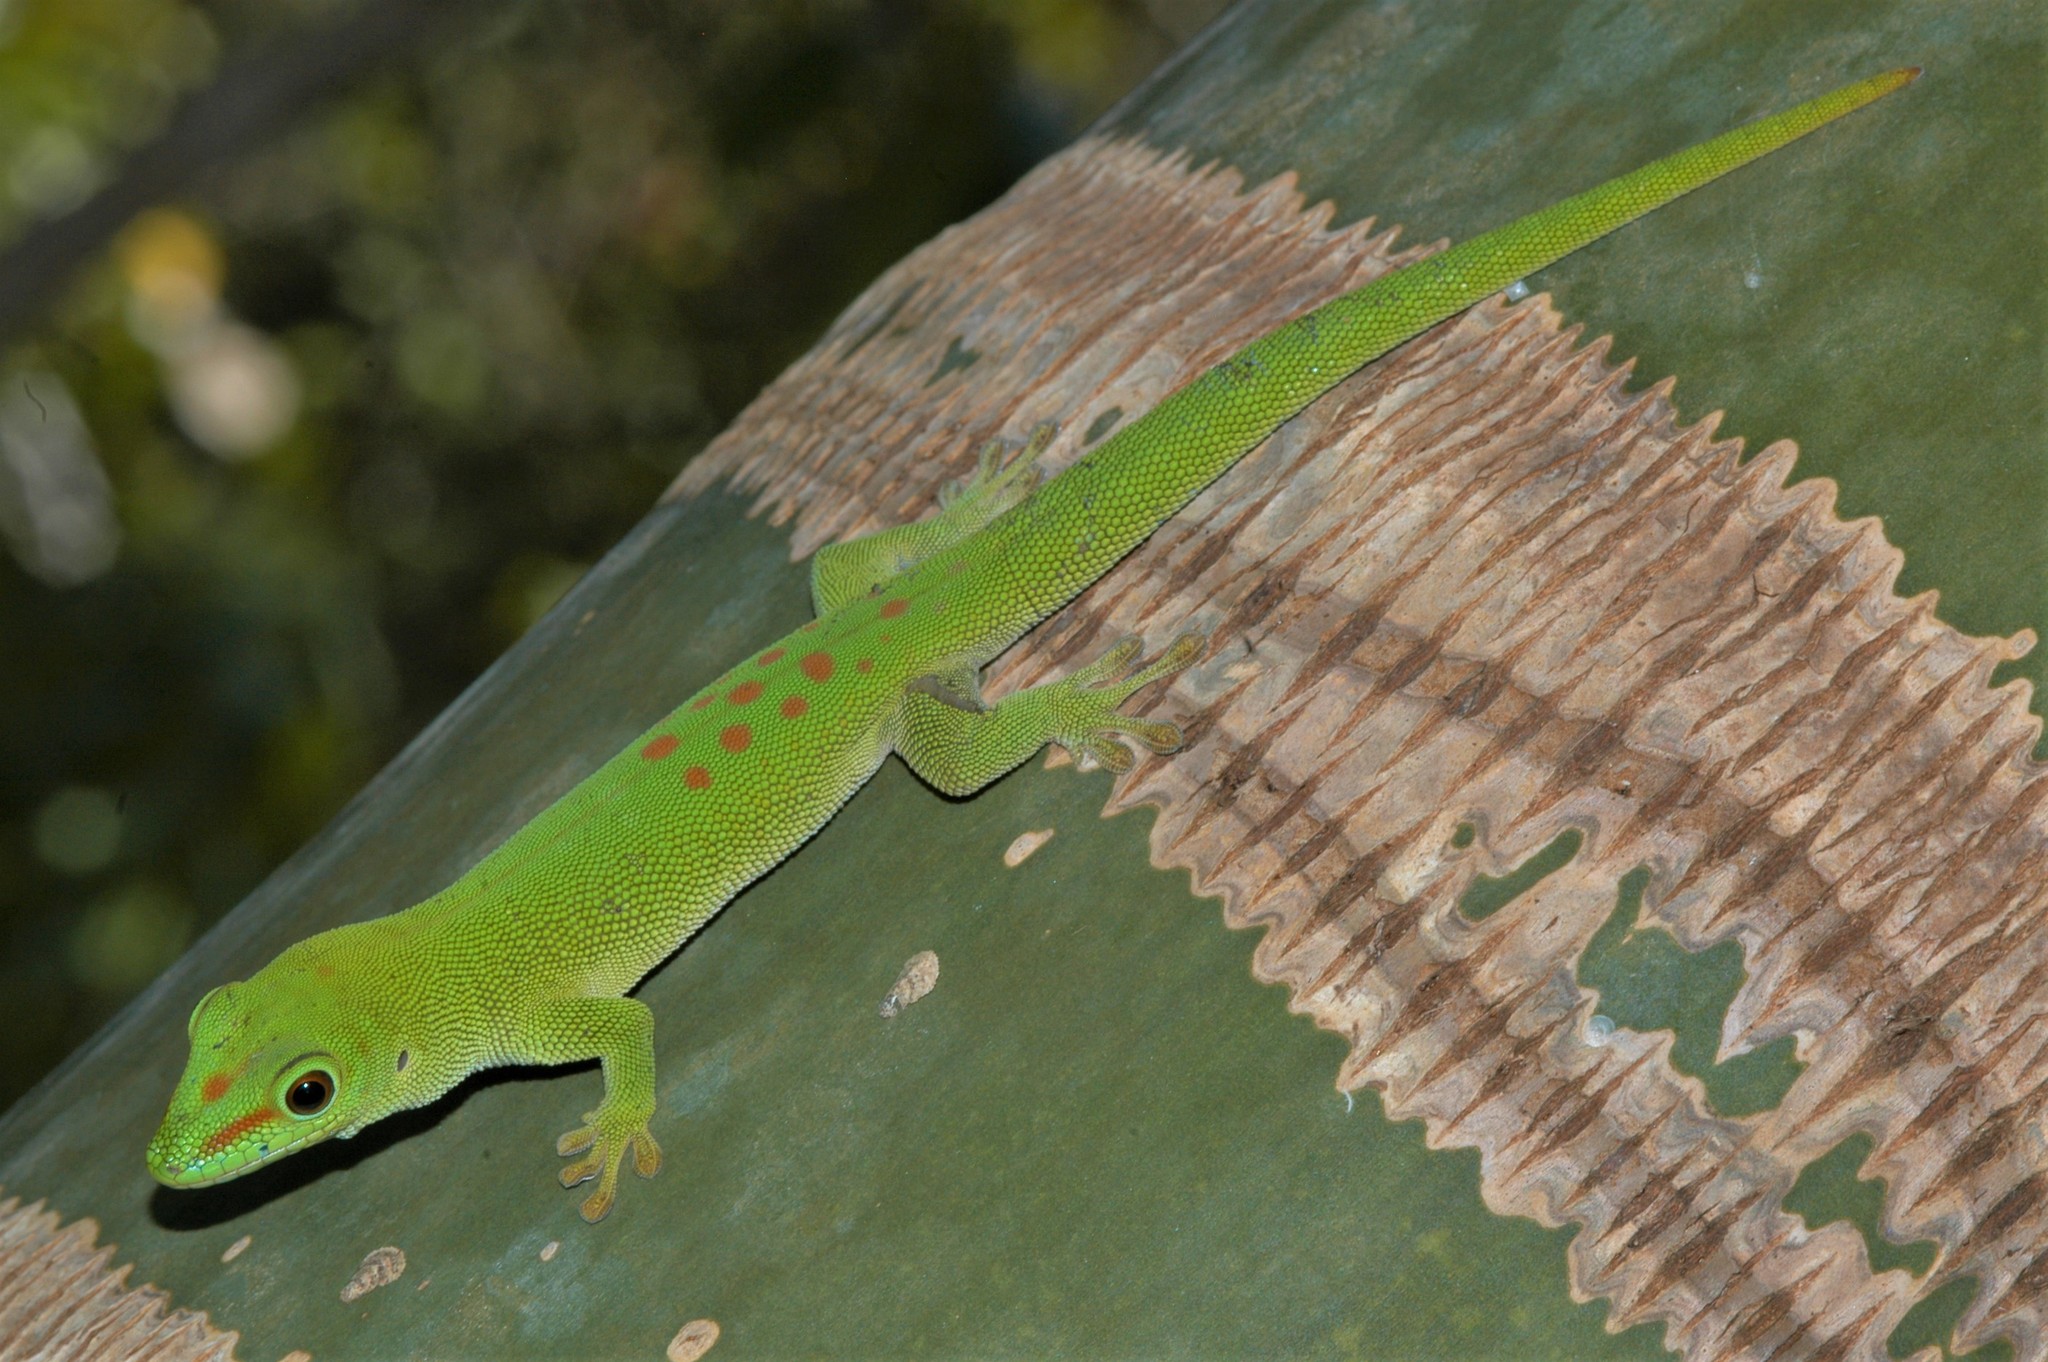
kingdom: Animalia
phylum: Chordata
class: Squamata
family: Gekkonidae
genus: Phelsuma
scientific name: Phelsuma grandis
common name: Madagascar giant day gecko
